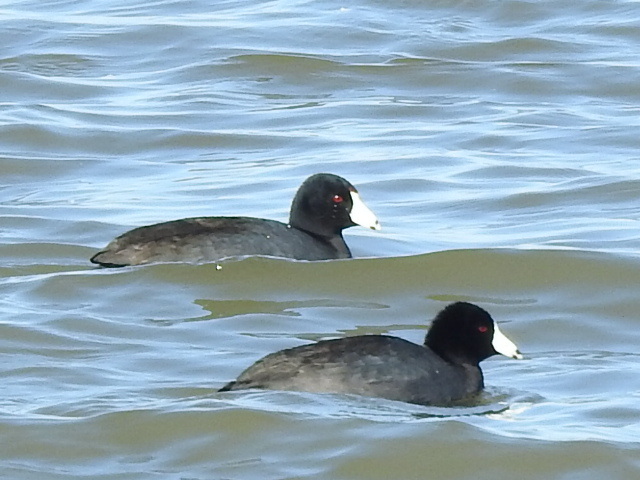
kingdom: Animalia
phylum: Chordata
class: Aves
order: Gruiformes
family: Rallidae
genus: Fulica
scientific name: Fulica americana
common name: American coot
